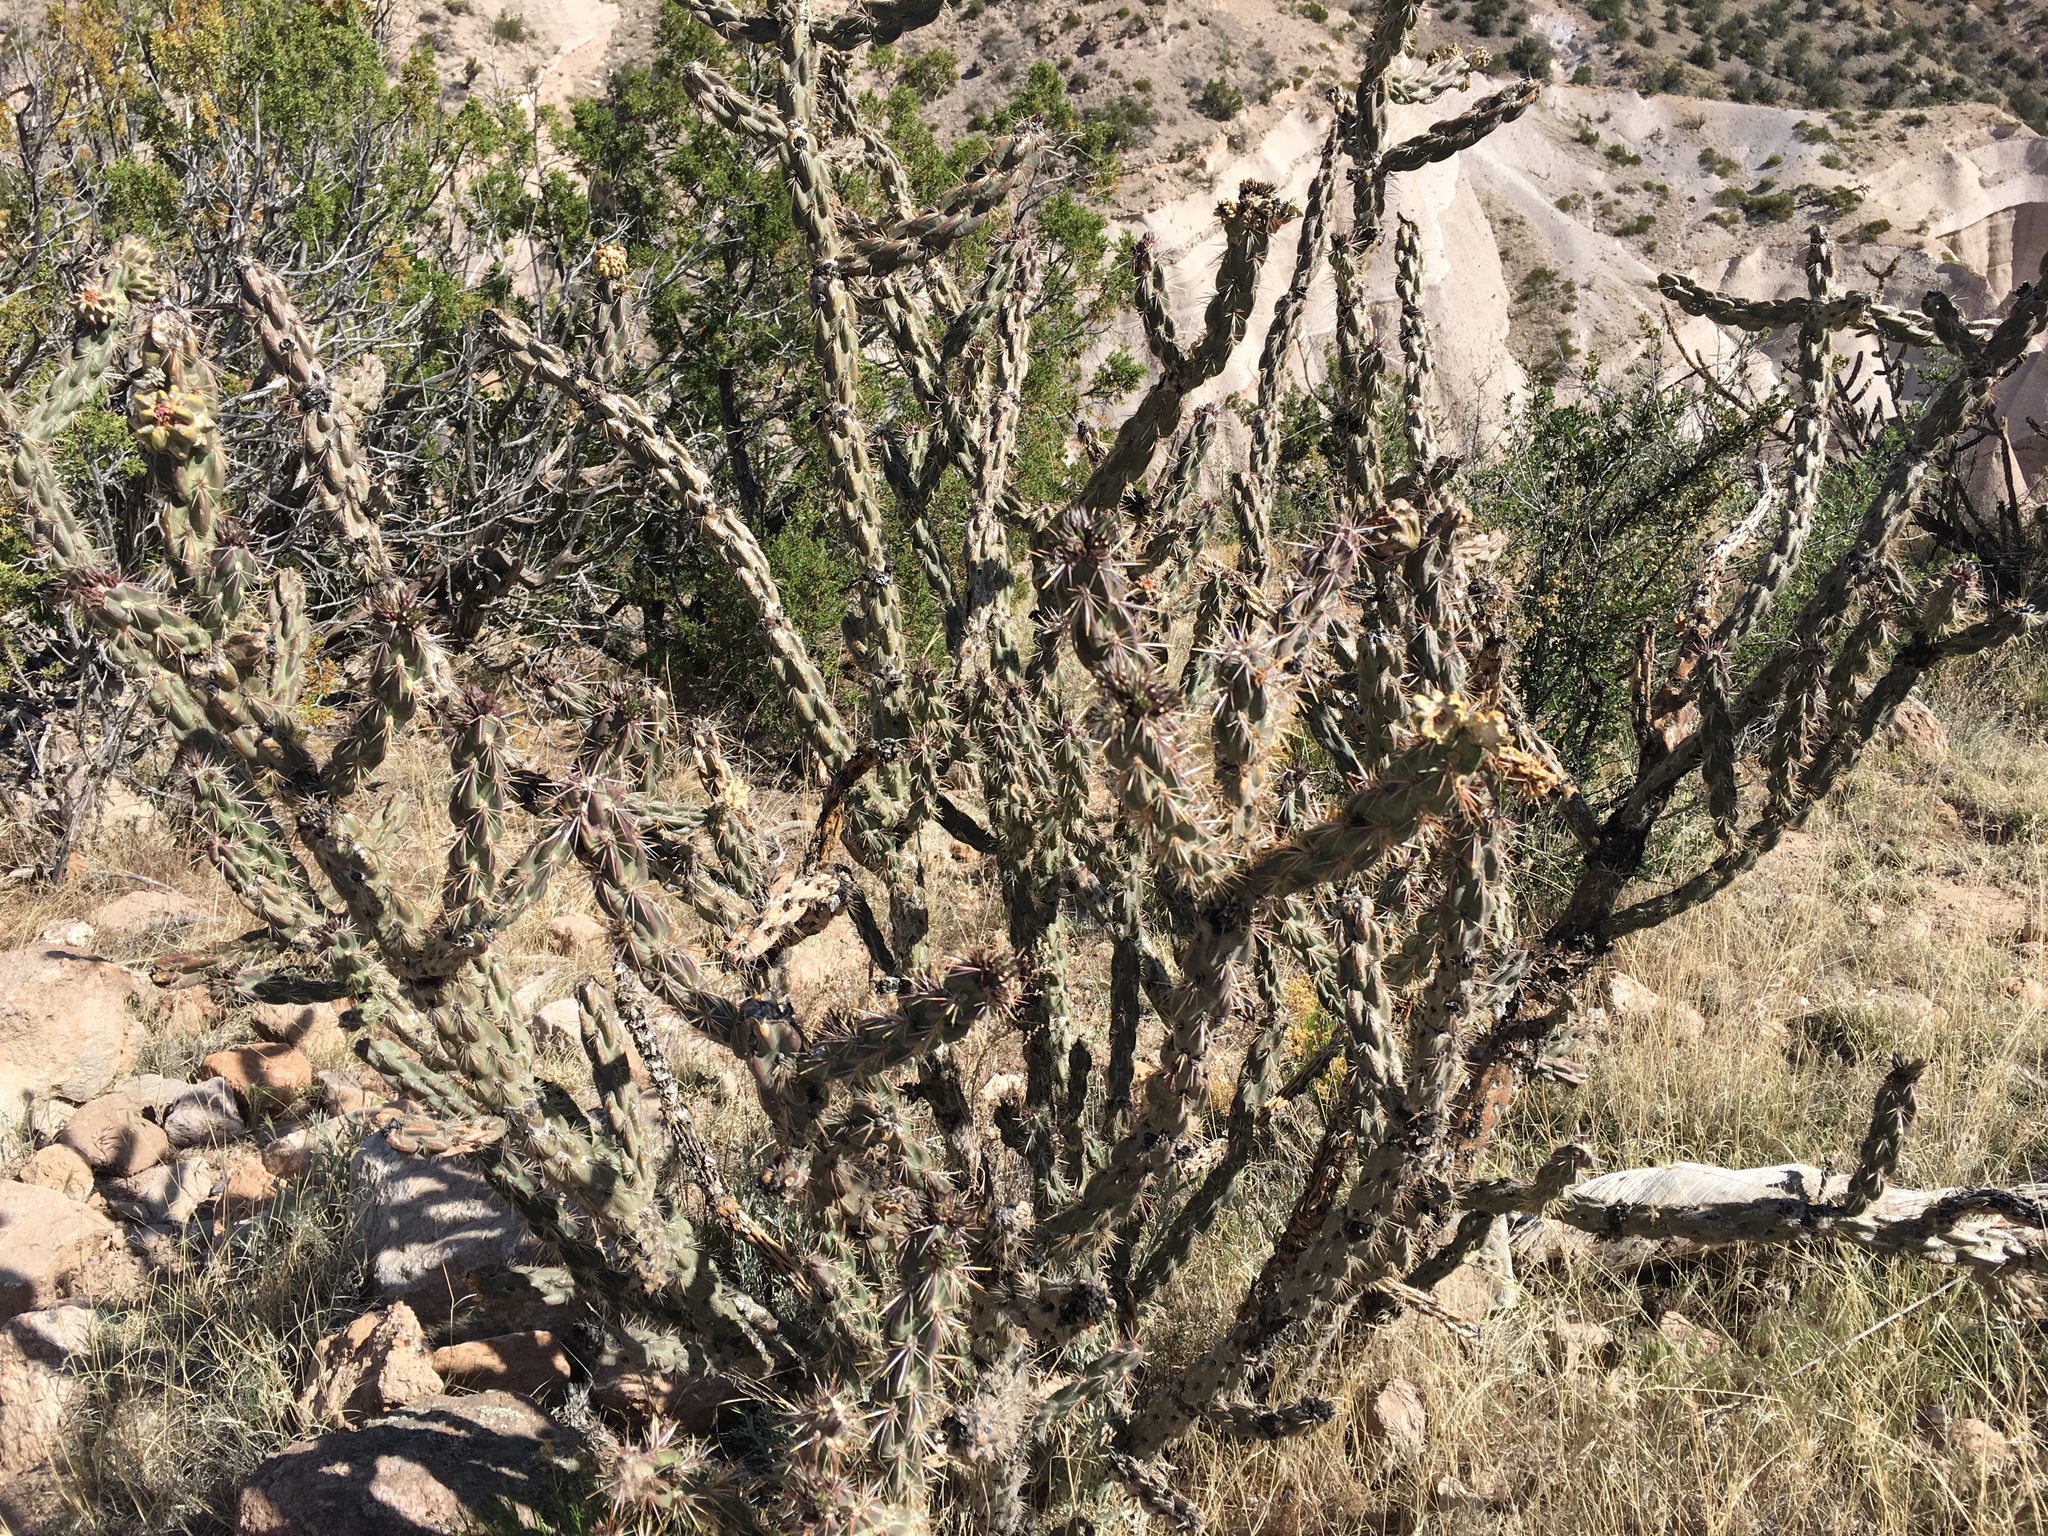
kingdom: Plantae
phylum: Tracheophyta
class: Magnoliopsida
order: Caryophyllales
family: Cactaceae
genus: Cylindropuntia
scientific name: Cylindropuntia imbricata
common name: Candelabrum cactus
